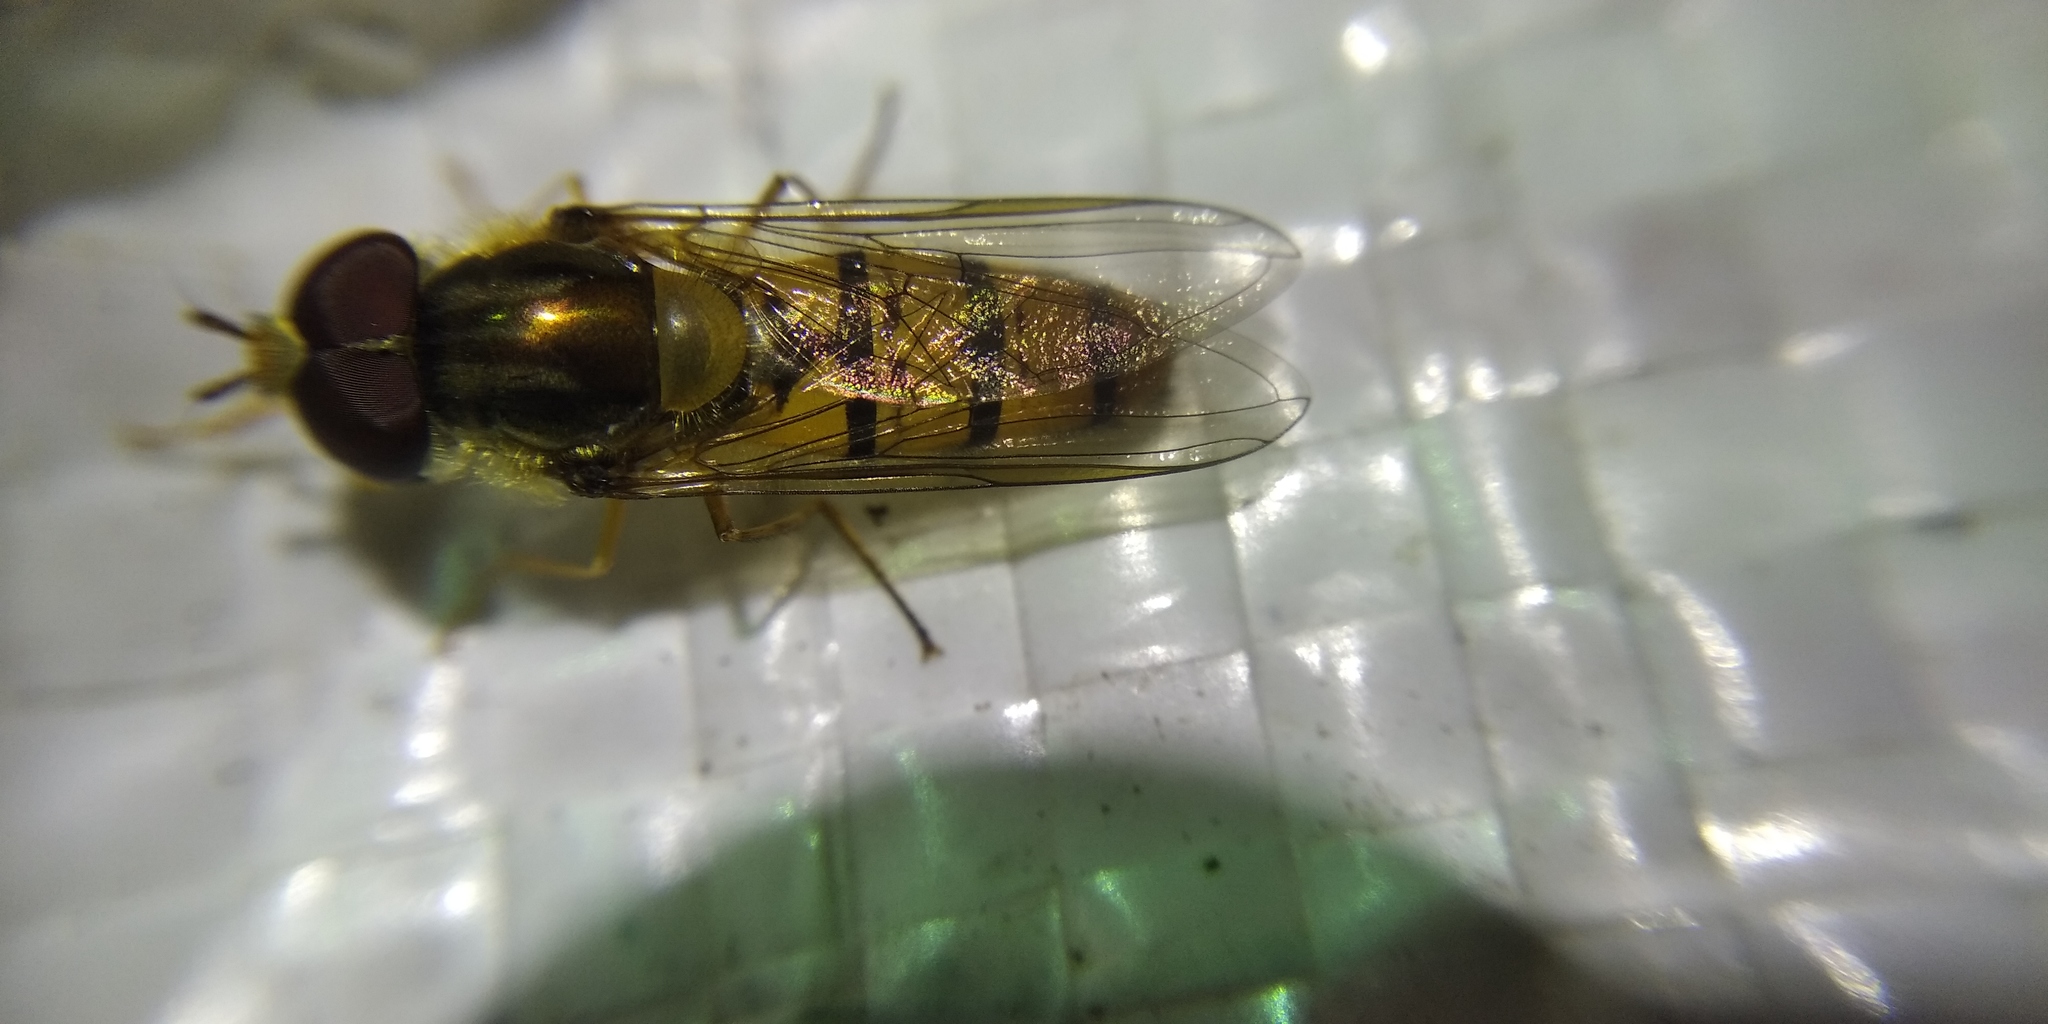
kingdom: Animalia
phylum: Arthropoda
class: Insecta
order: Diptera
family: Syrphidae
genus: Episyrphus
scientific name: Episyrphus balteatus
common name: Marmalade hoverfly
